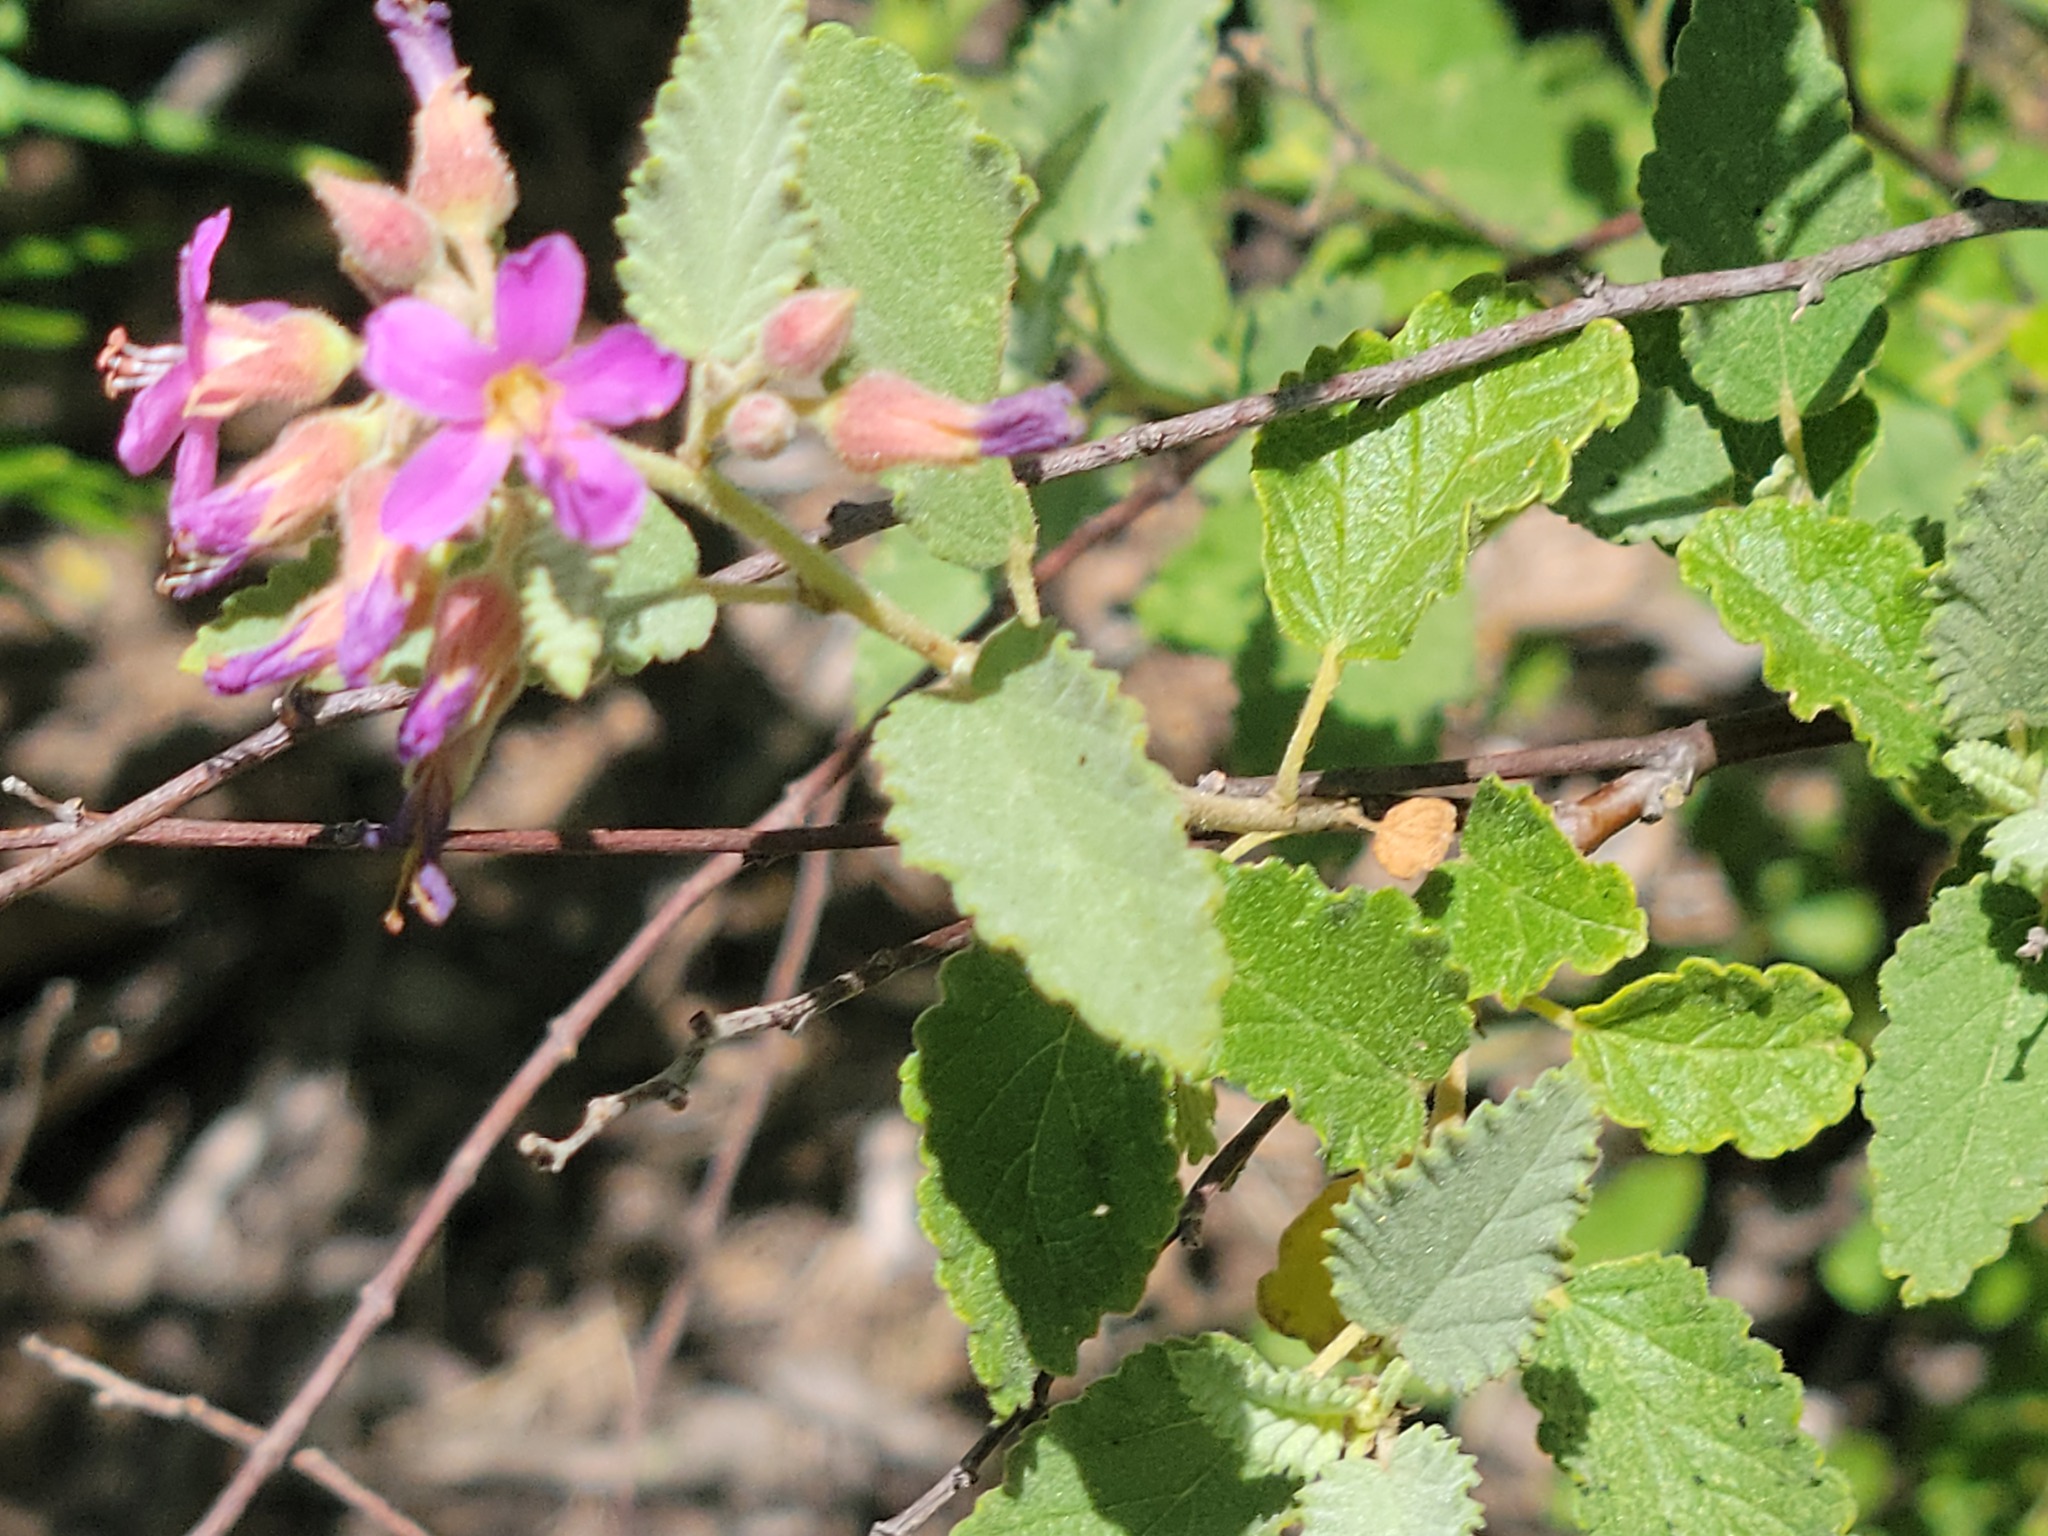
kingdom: Plantae
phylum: Tracheophyta
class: Magnoliopsida
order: Malvales
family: Malvaceae
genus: Melochia
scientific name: Melochia tomentosa
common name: Black torch
